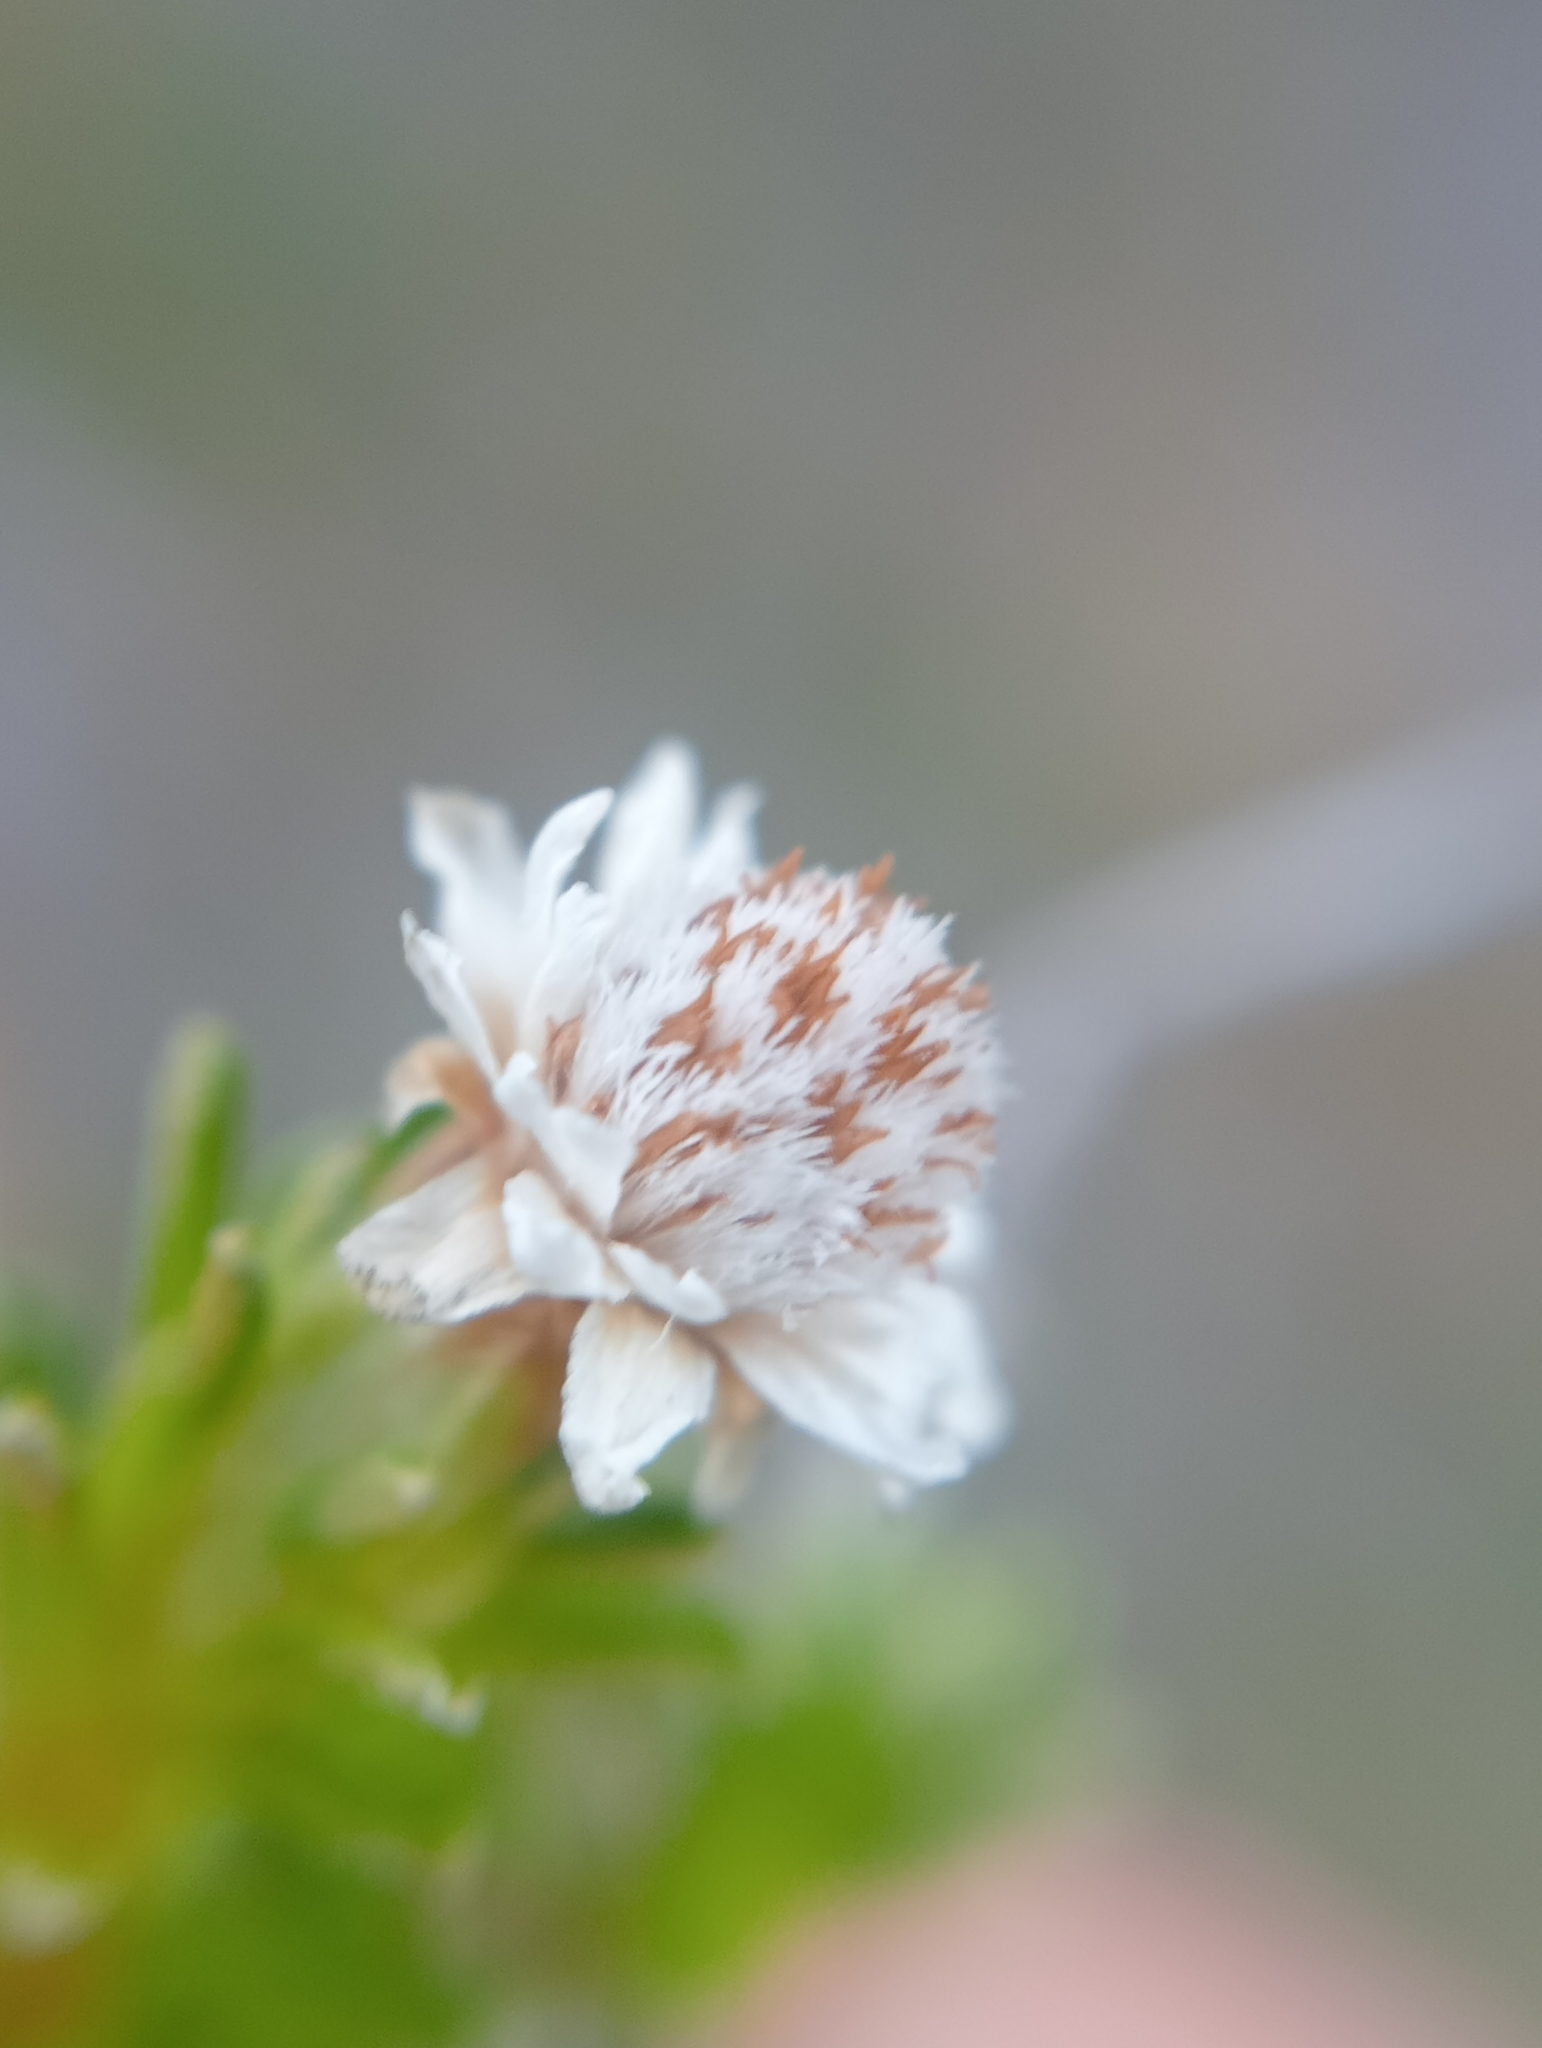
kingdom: Plantae
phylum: Tracheophyta
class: Magnoliopsida
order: Asterales
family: Asteraceae
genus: Raoulia
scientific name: Raoulia subsericea
